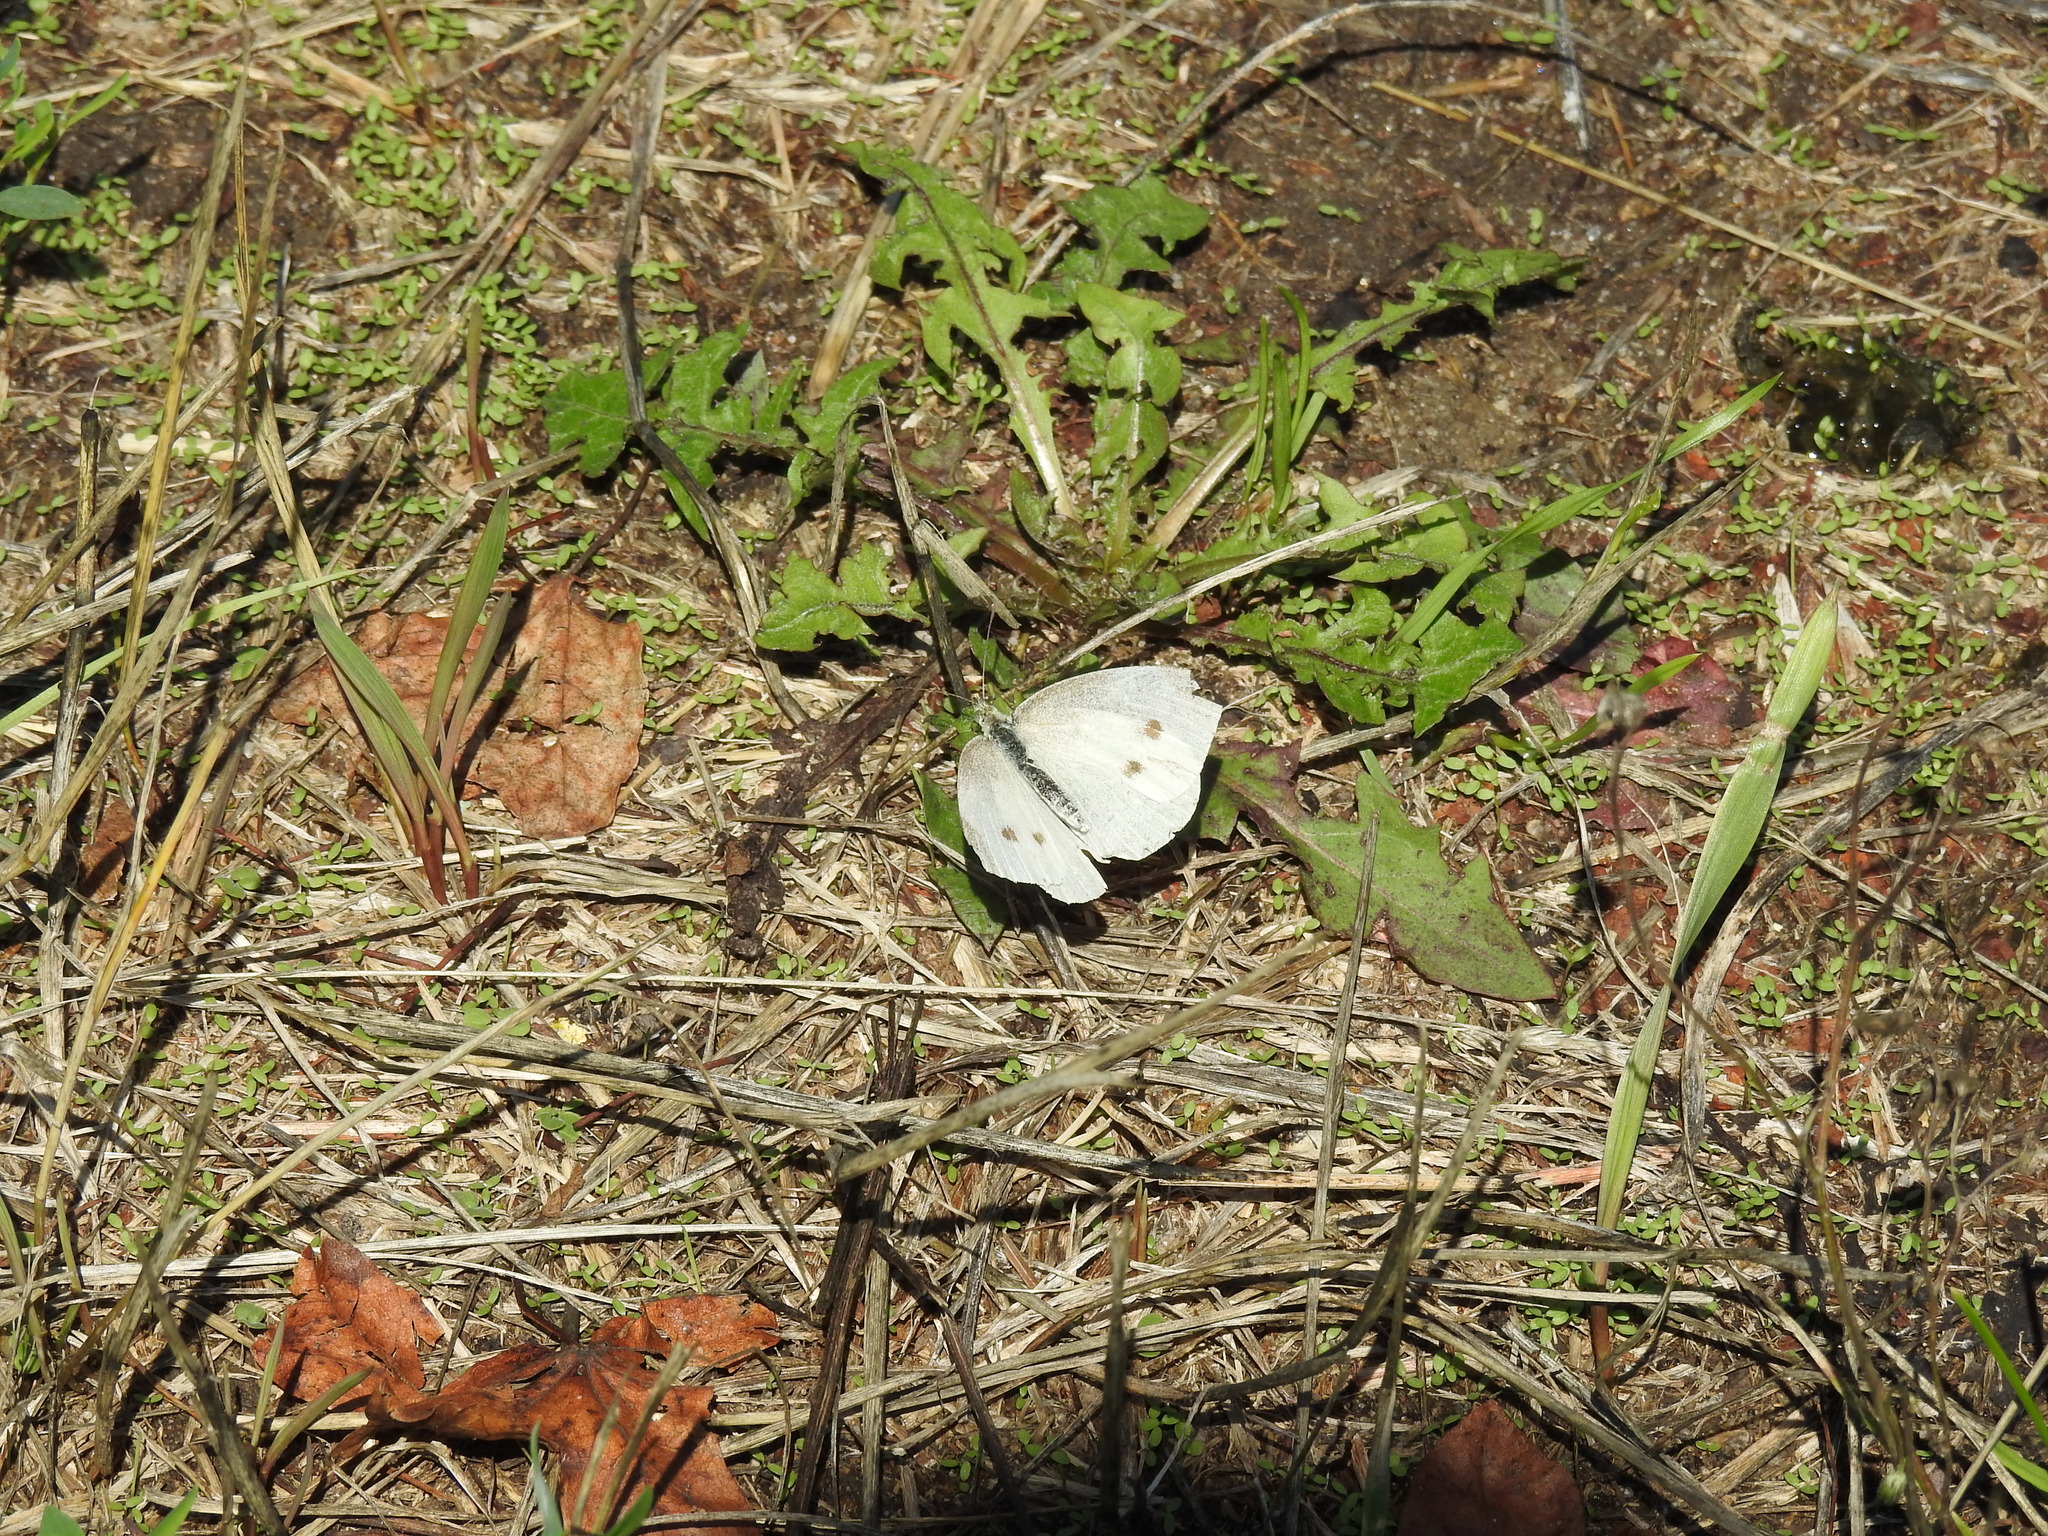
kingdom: Animalia
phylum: Arthropoda
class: Insecta
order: Lepidoptera
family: Pieridae
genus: Pieris
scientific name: Pieris rapae
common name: Small white
